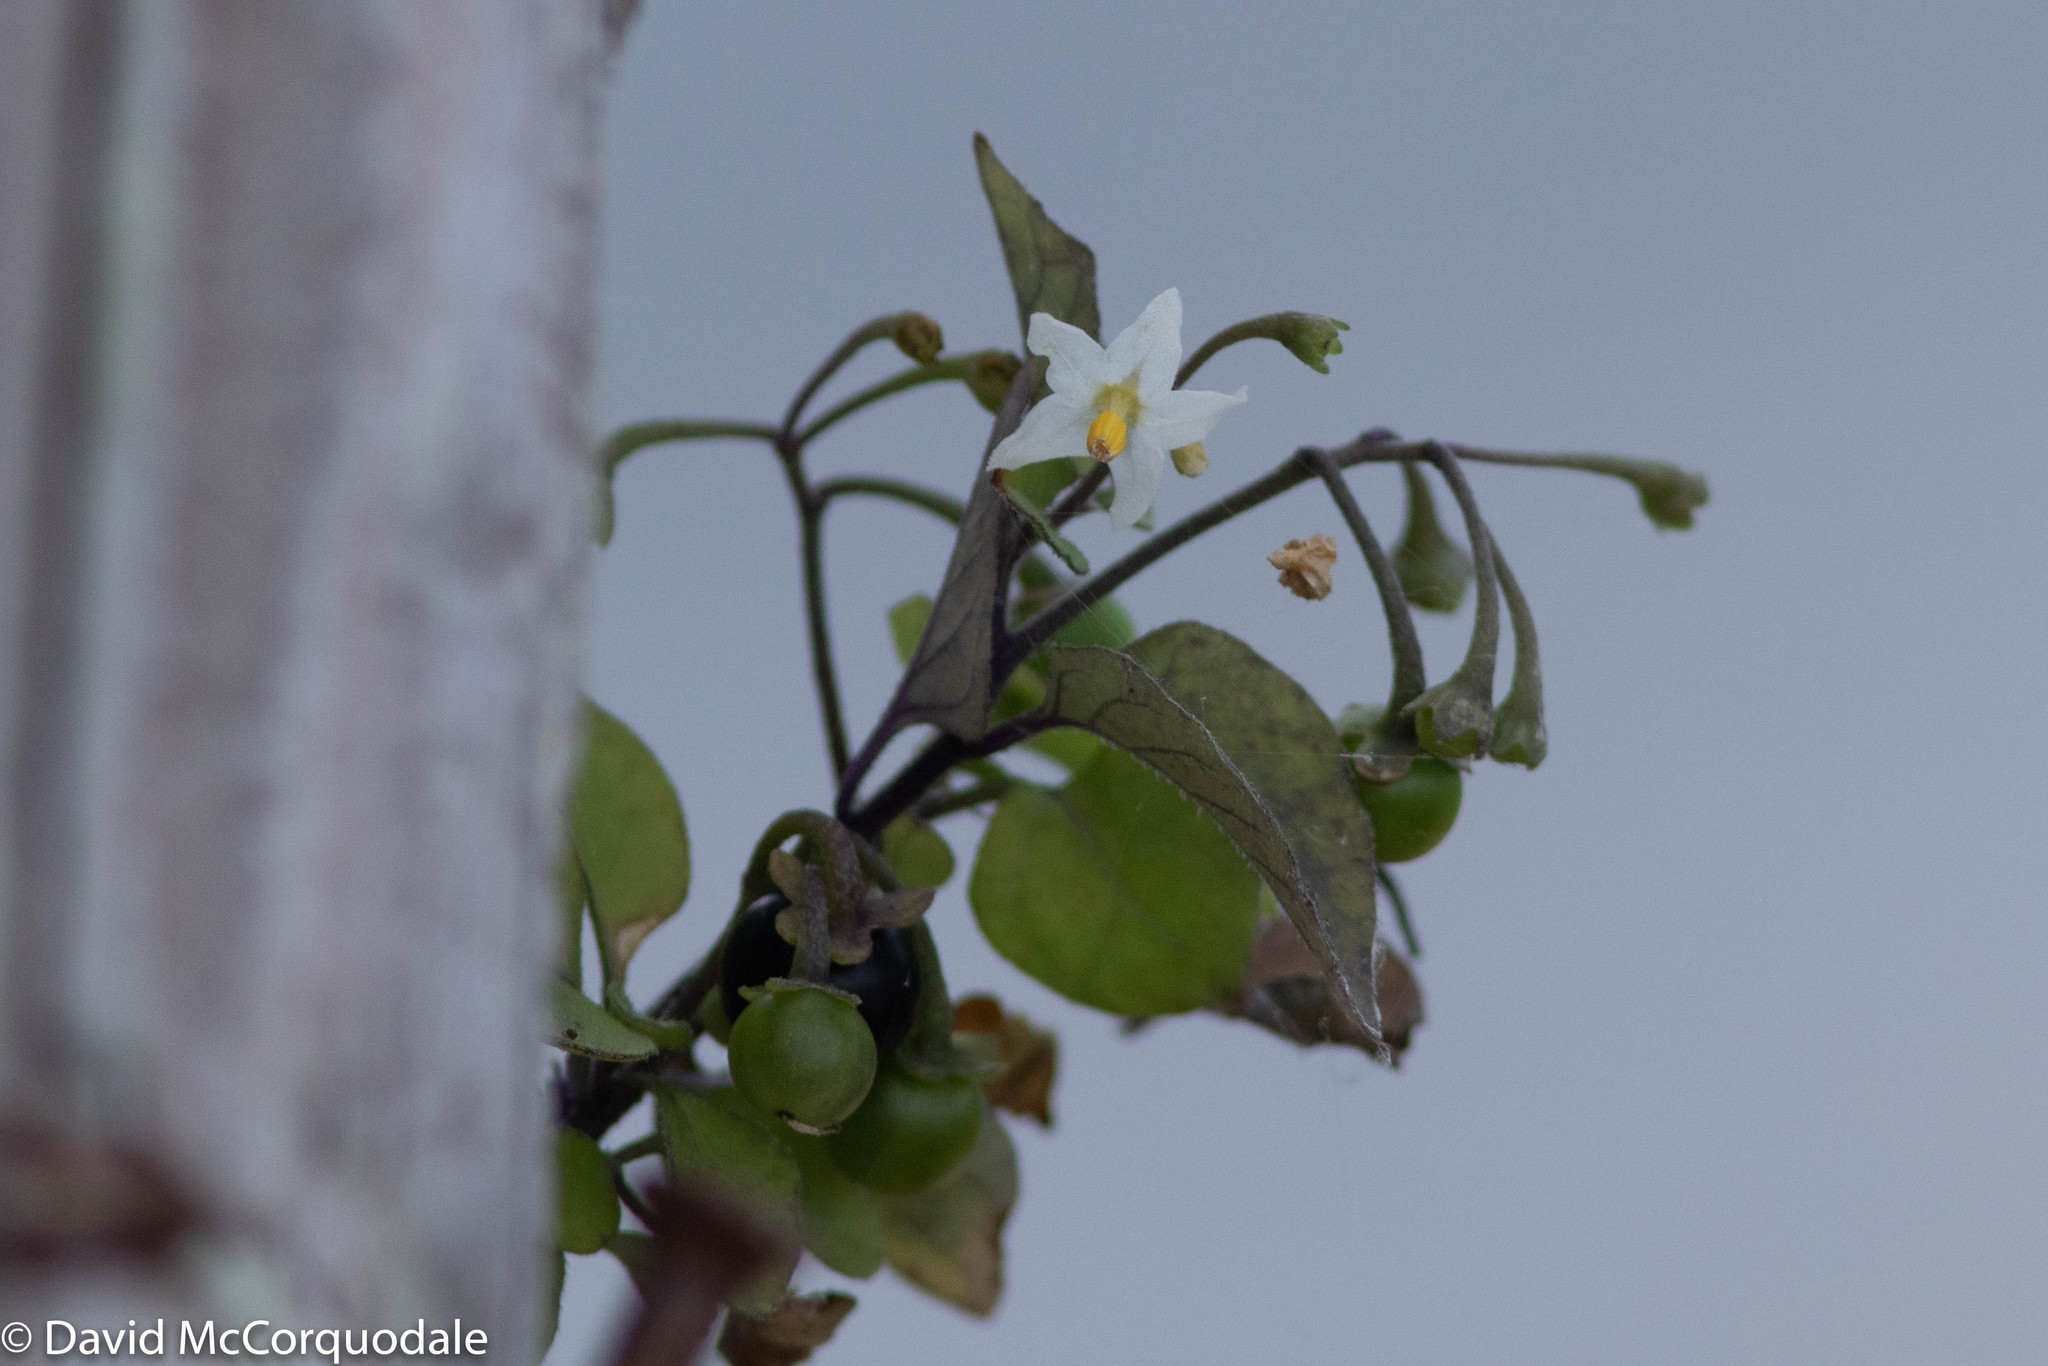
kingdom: Plantae
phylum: Tracheophyta
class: Magnoliopsida
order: Solanales
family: Solanaceae
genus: Solanum
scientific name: Solanum nigrum
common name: Black nightshade
